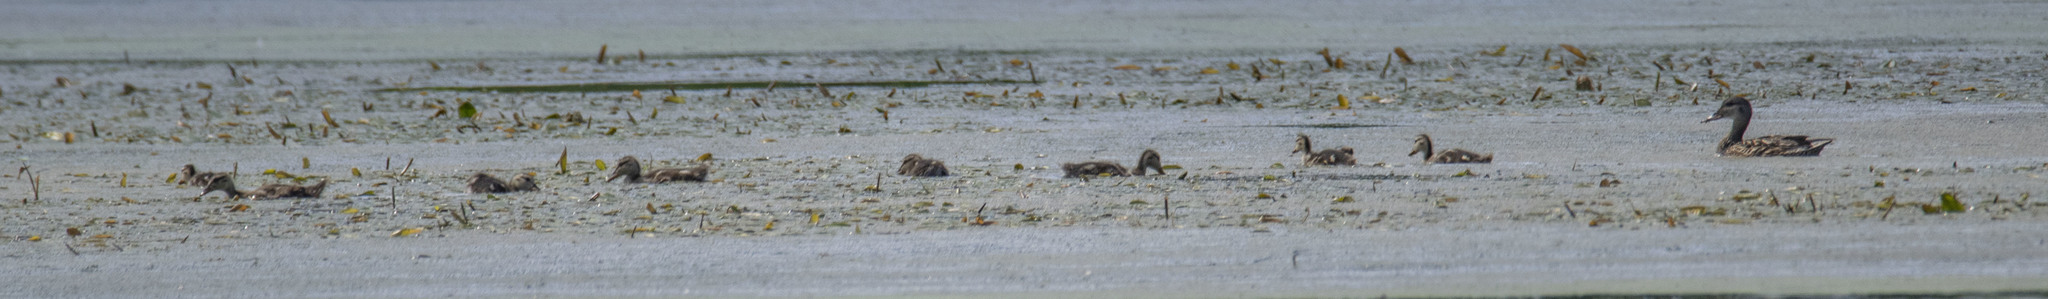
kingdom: Animalia
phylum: Chordata
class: Aves
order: Anseriformes
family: Anatidae
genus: Anas
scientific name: Anas platyrhynchos
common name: Mallard
